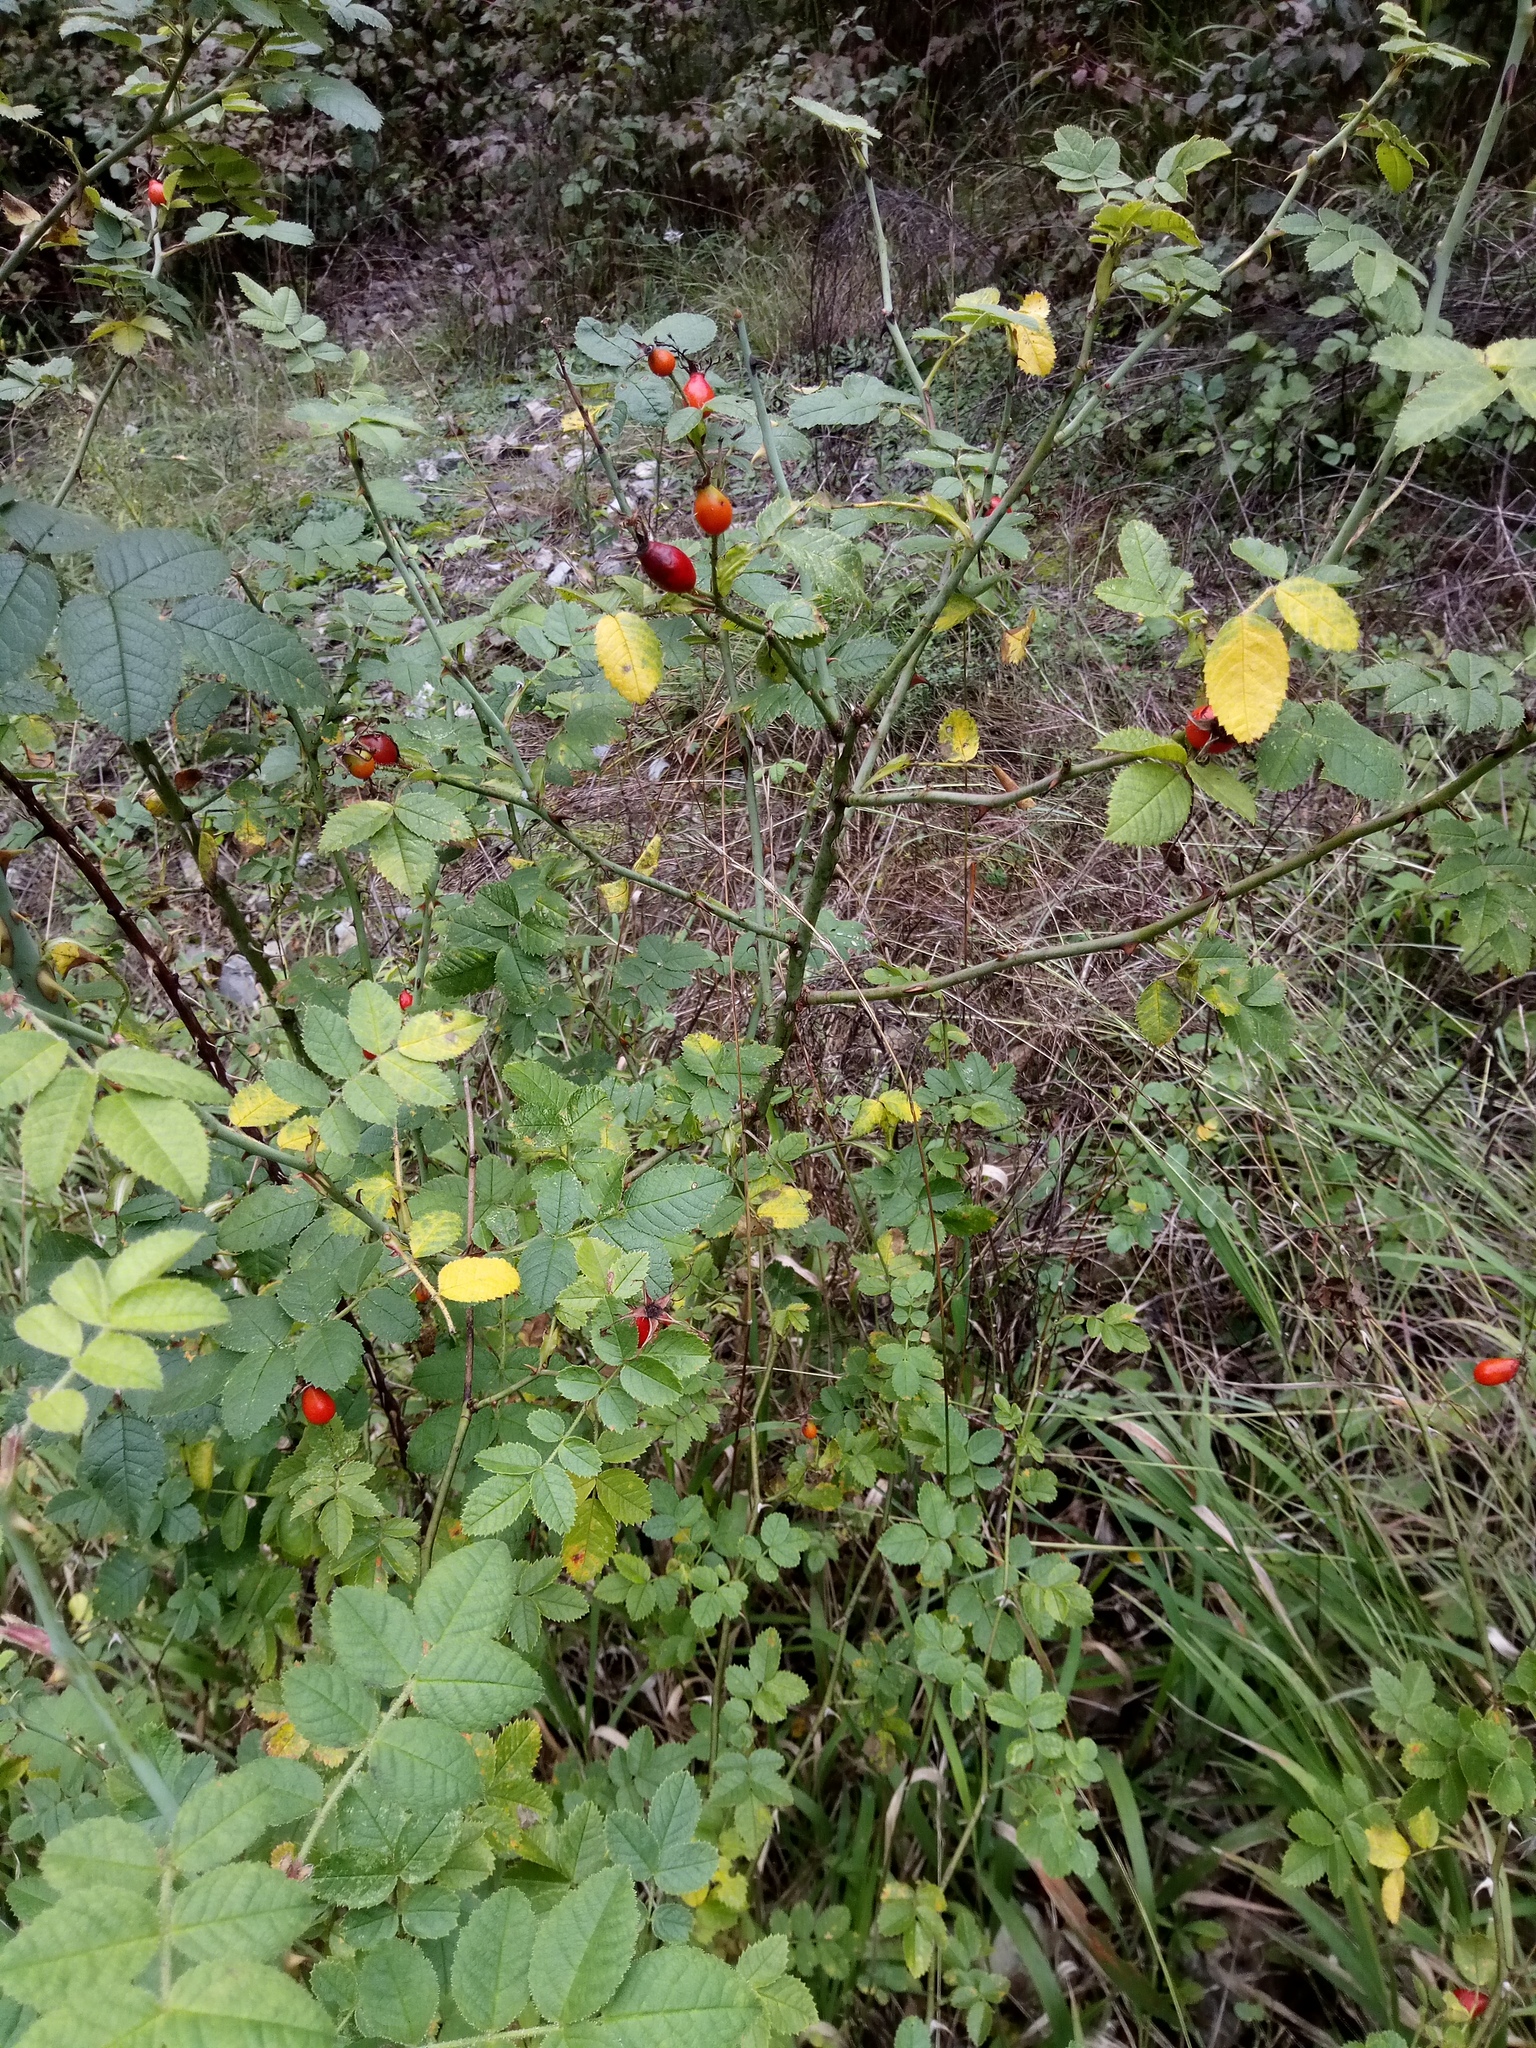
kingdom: Plantae
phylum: Tracheophyta
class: Magnoliopsida
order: Rosales
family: Rosaceae
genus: Rosa
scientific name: Rosa rubiginosa
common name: Sweet-briar
